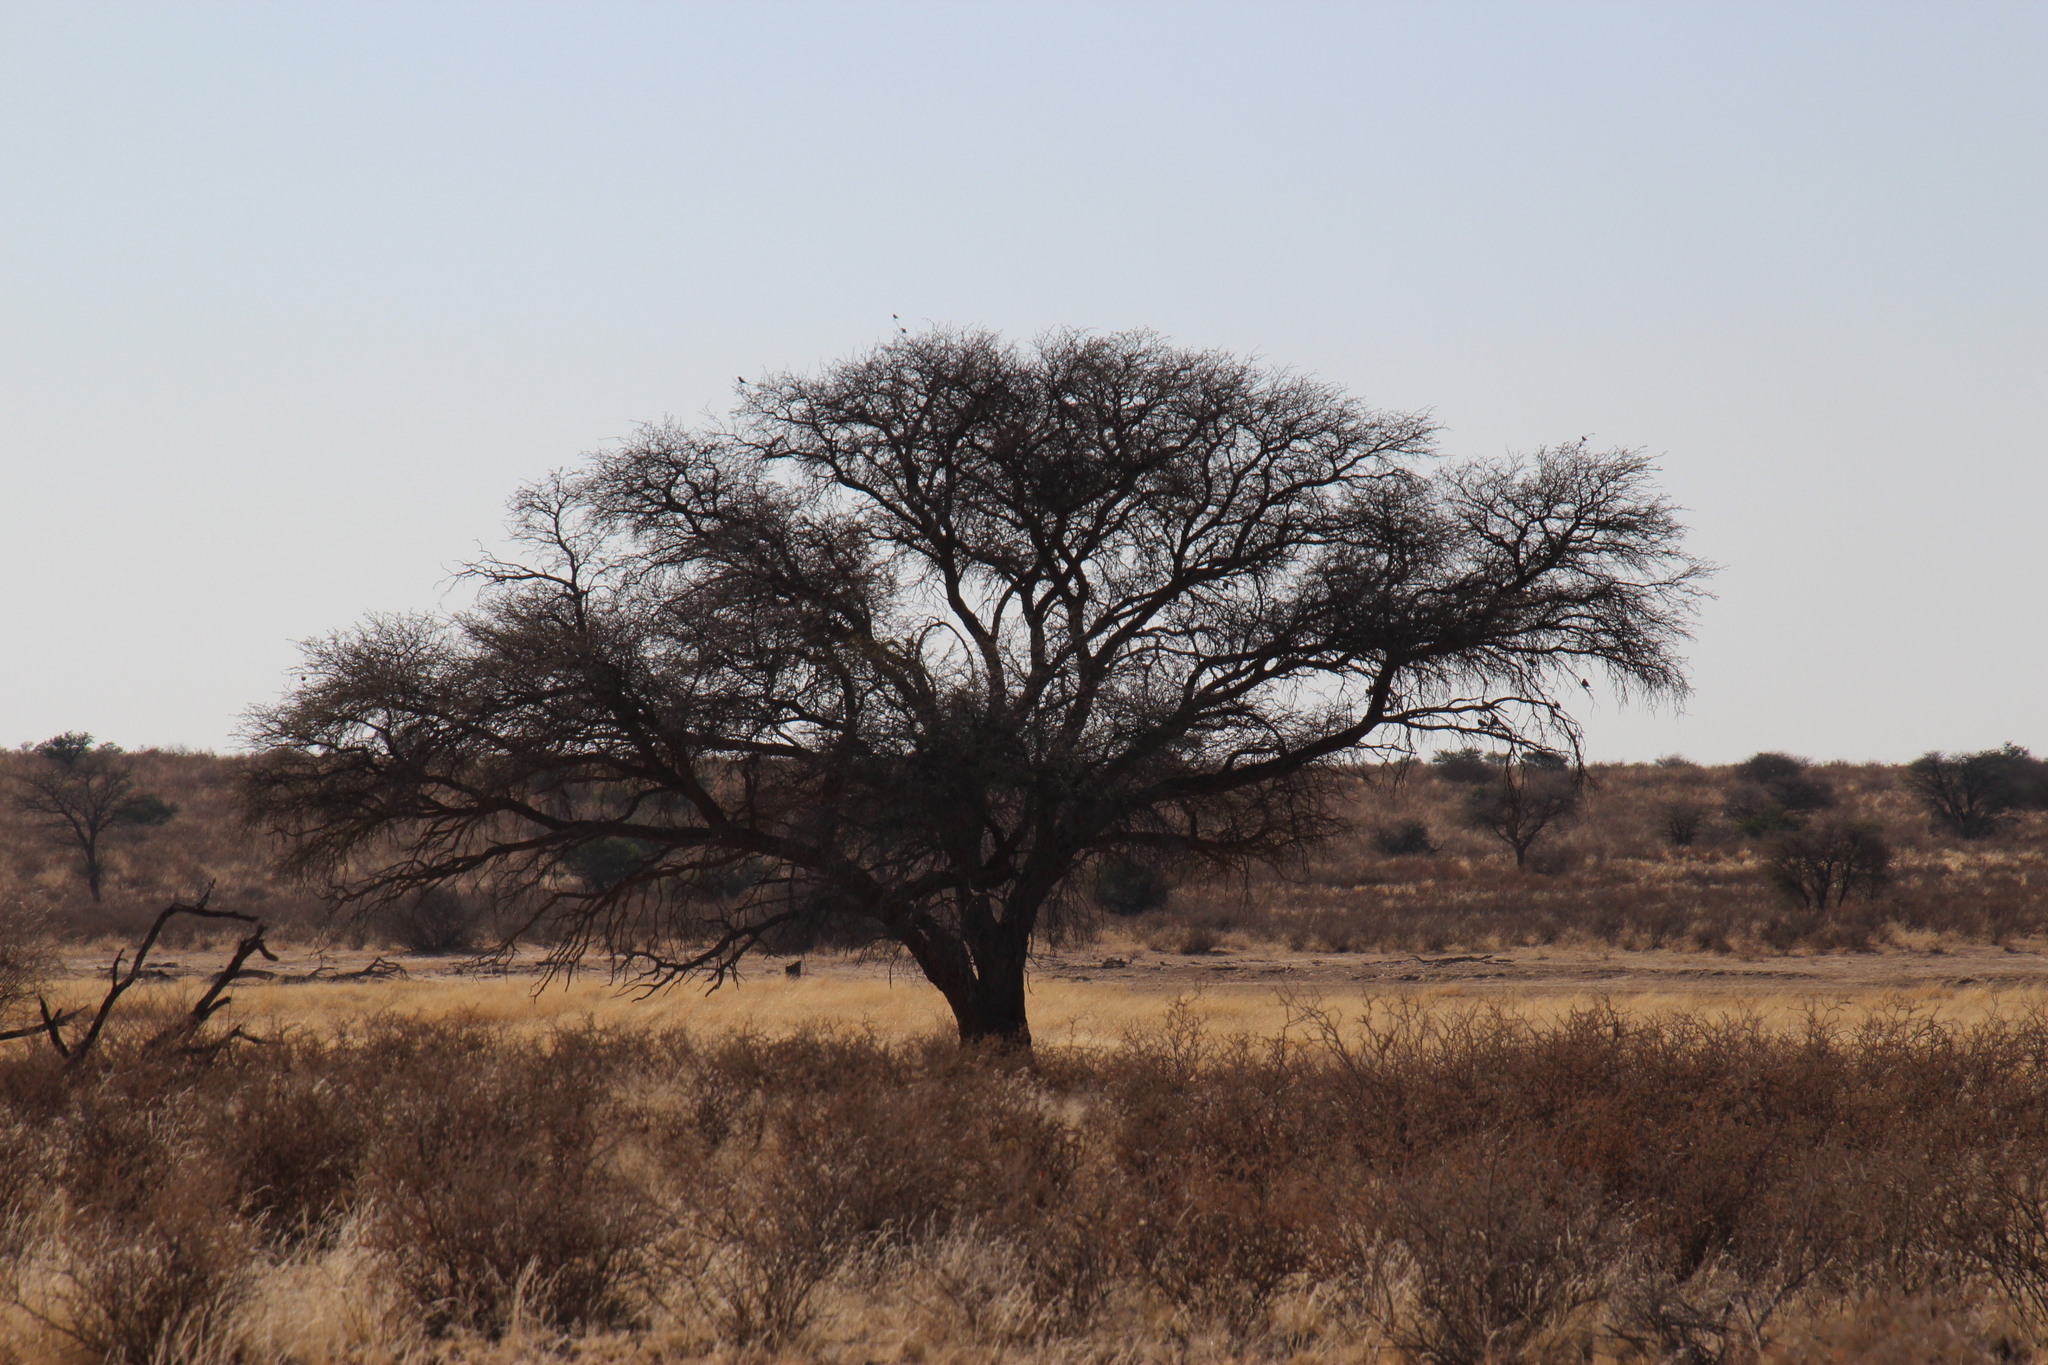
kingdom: Plantae
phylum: Tracheophyta
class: Magnoliopsida
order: Fabales
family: Fabaceae
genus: Vachellia
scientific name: Vachellia erioloba
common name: Camel thorn
